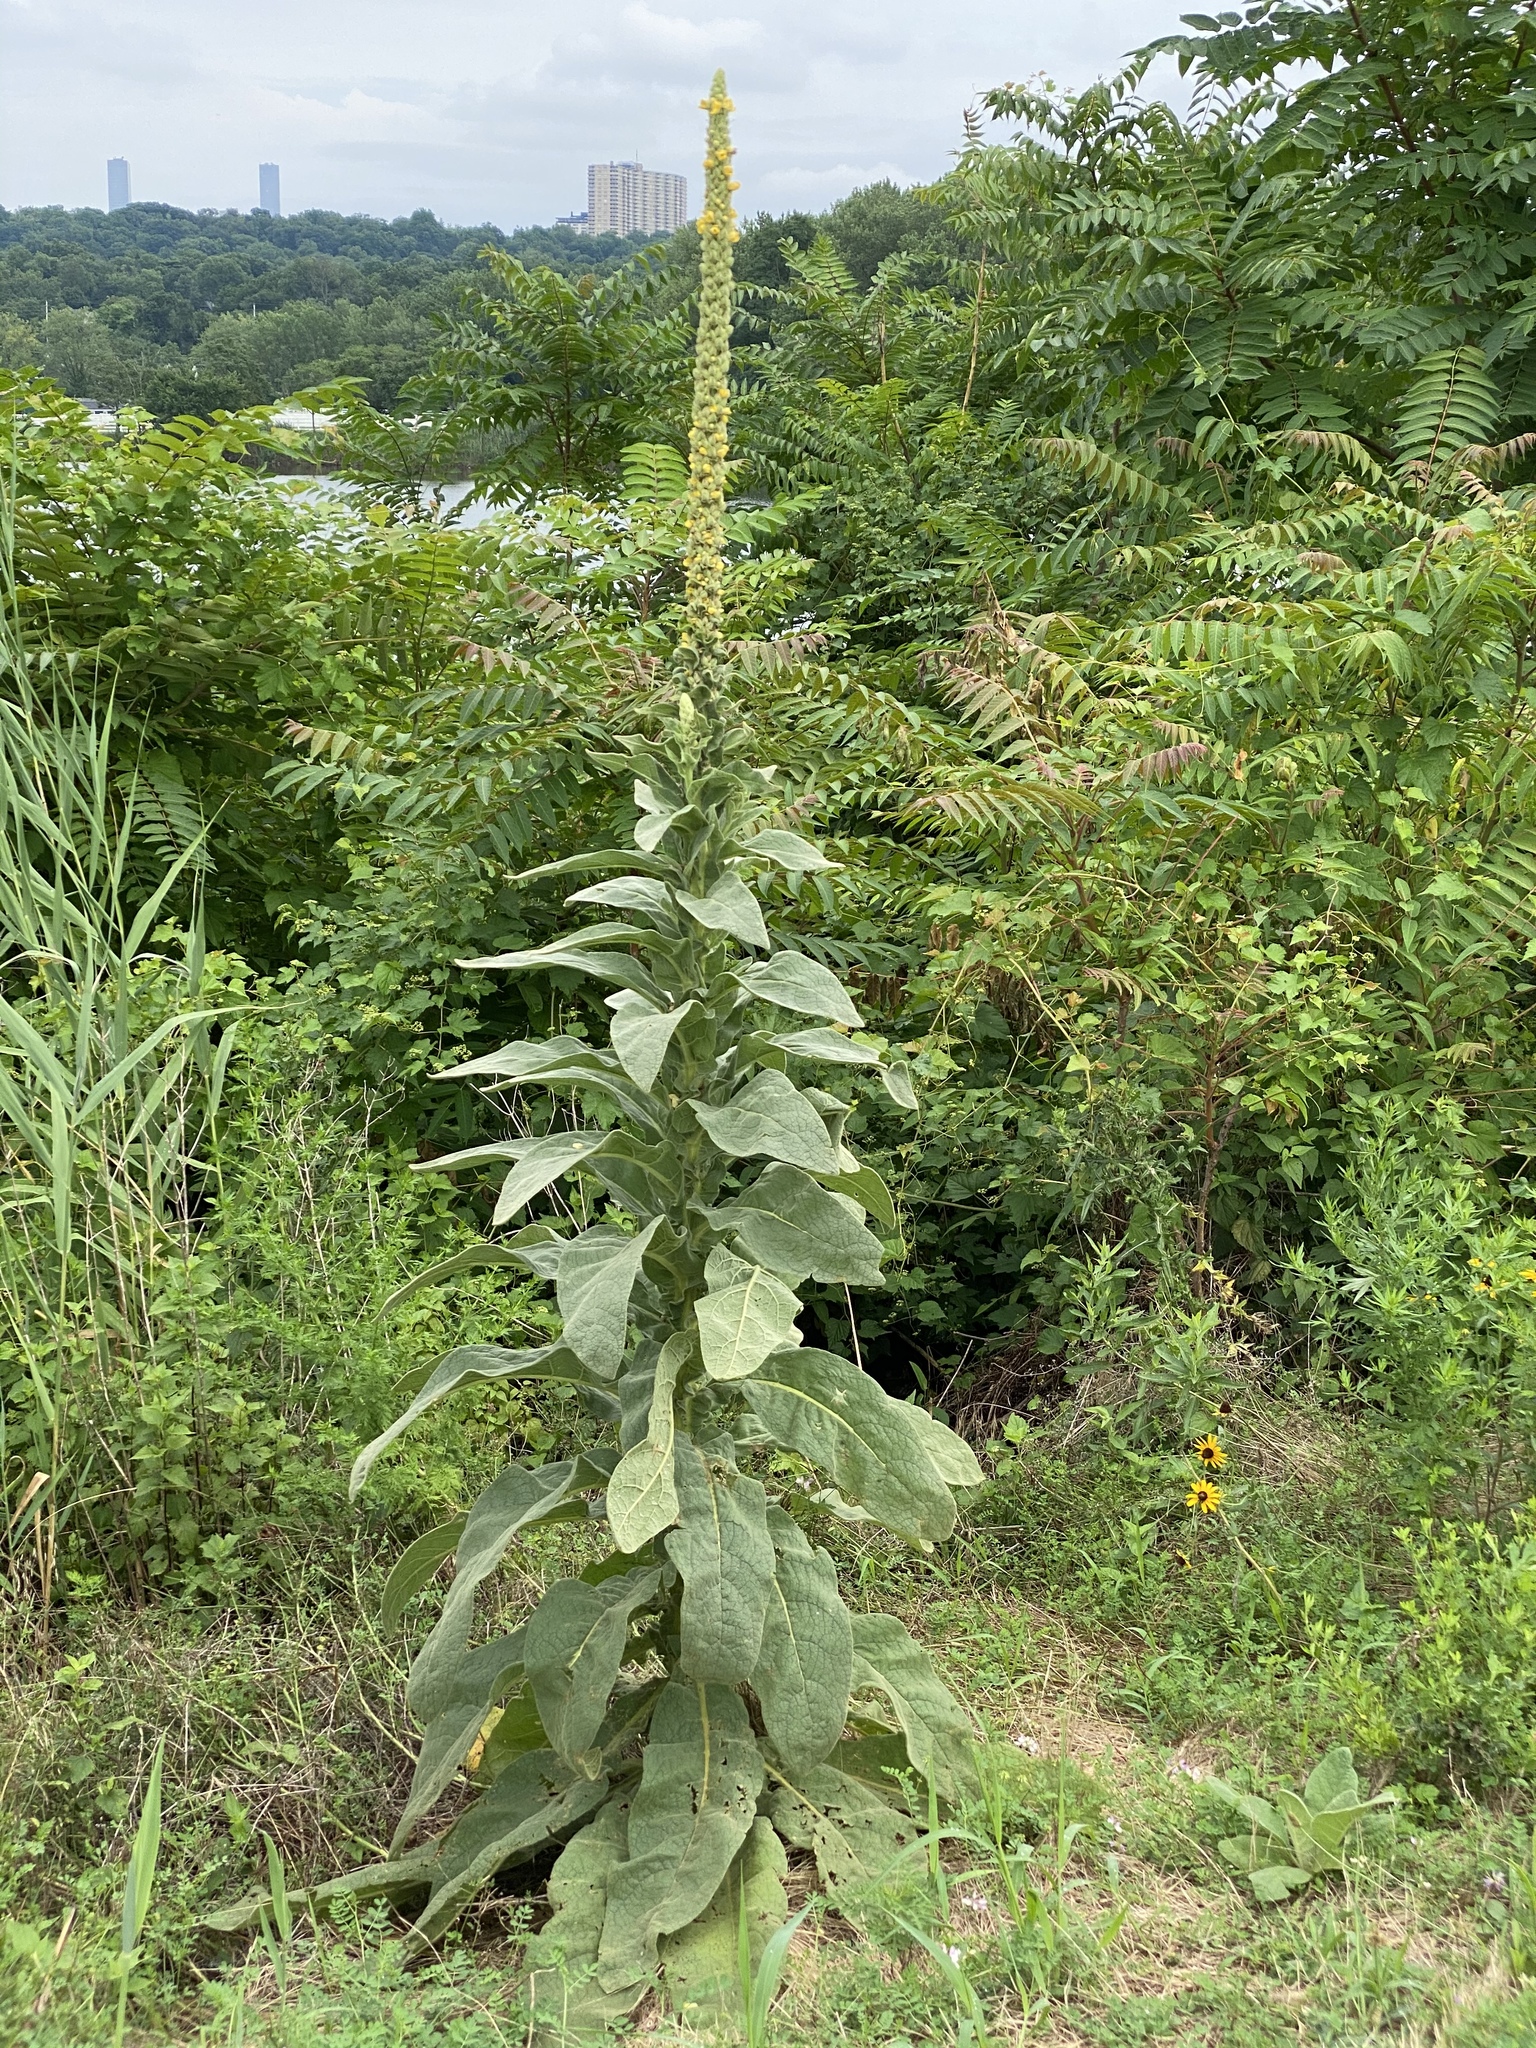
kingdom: Plantae
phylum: Tracheophyta
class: Magnoliopsida
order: Lamiales
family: Scrophulariaceae
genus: Verbascum
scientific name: Verbascum thapsus
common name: Common mullein
